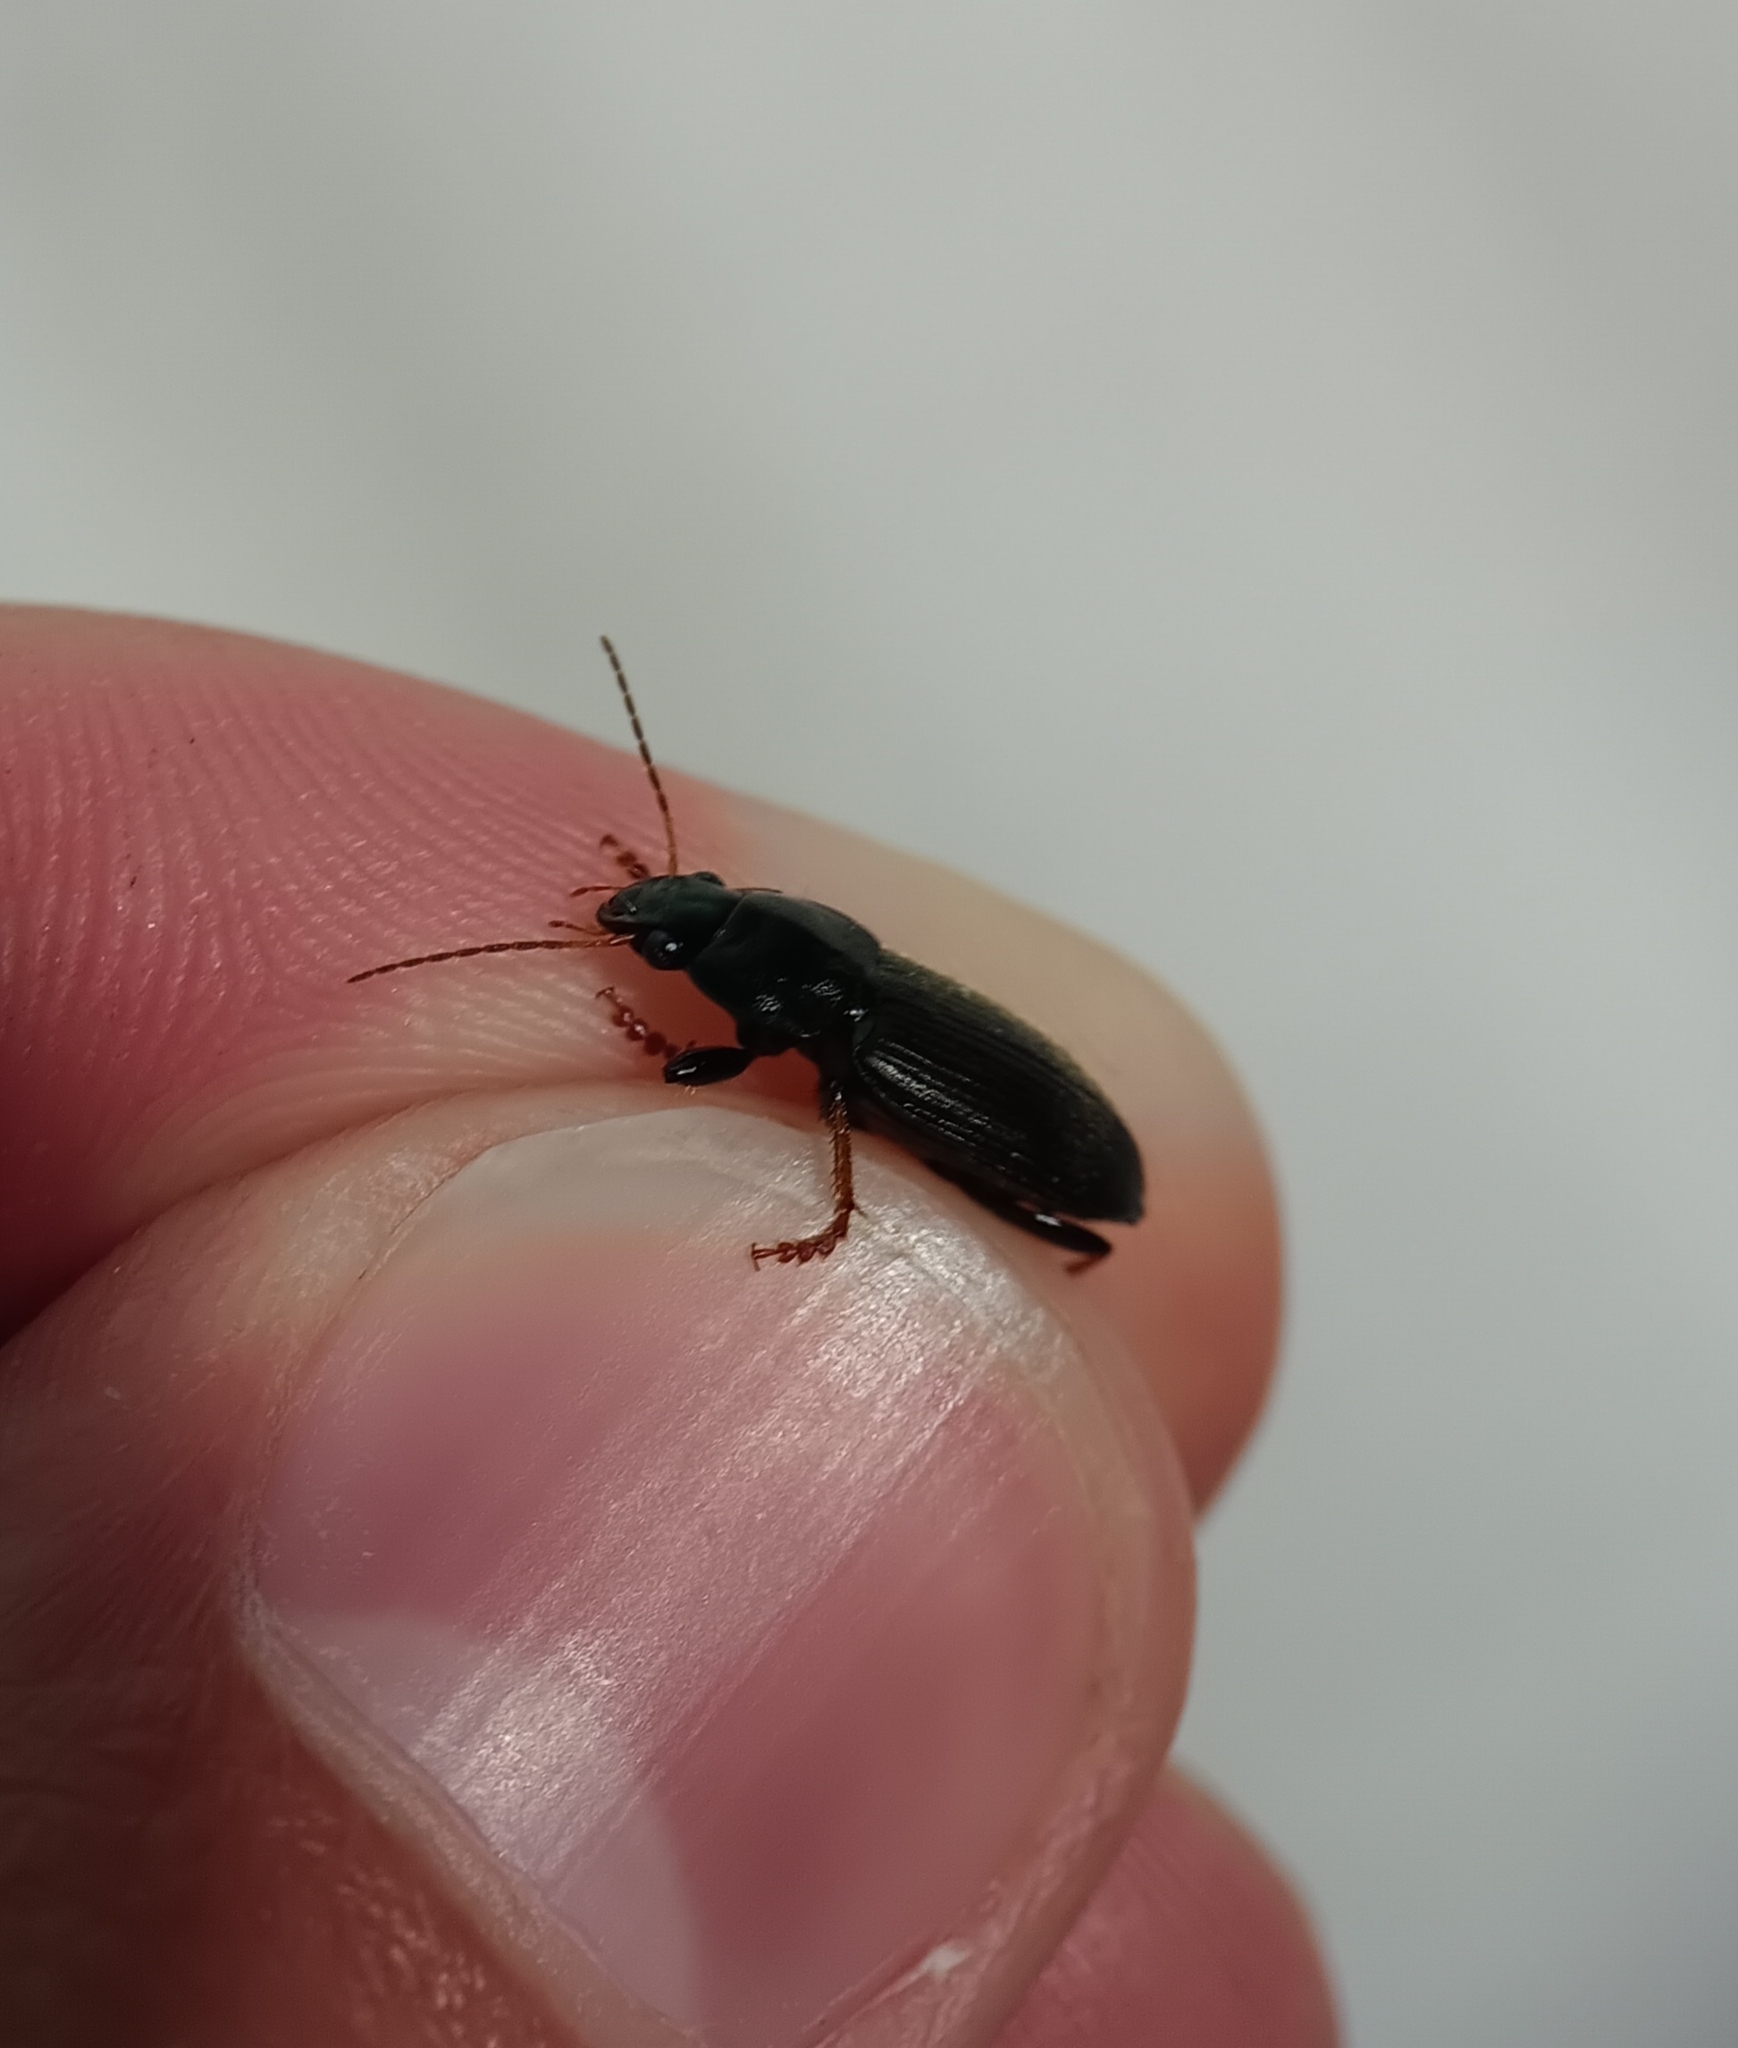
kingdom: Animalia
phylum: Arthropoda
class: Insecta
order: Coleoptera
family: Carabidae
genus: Amphasia
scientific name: Amphasia sericea
